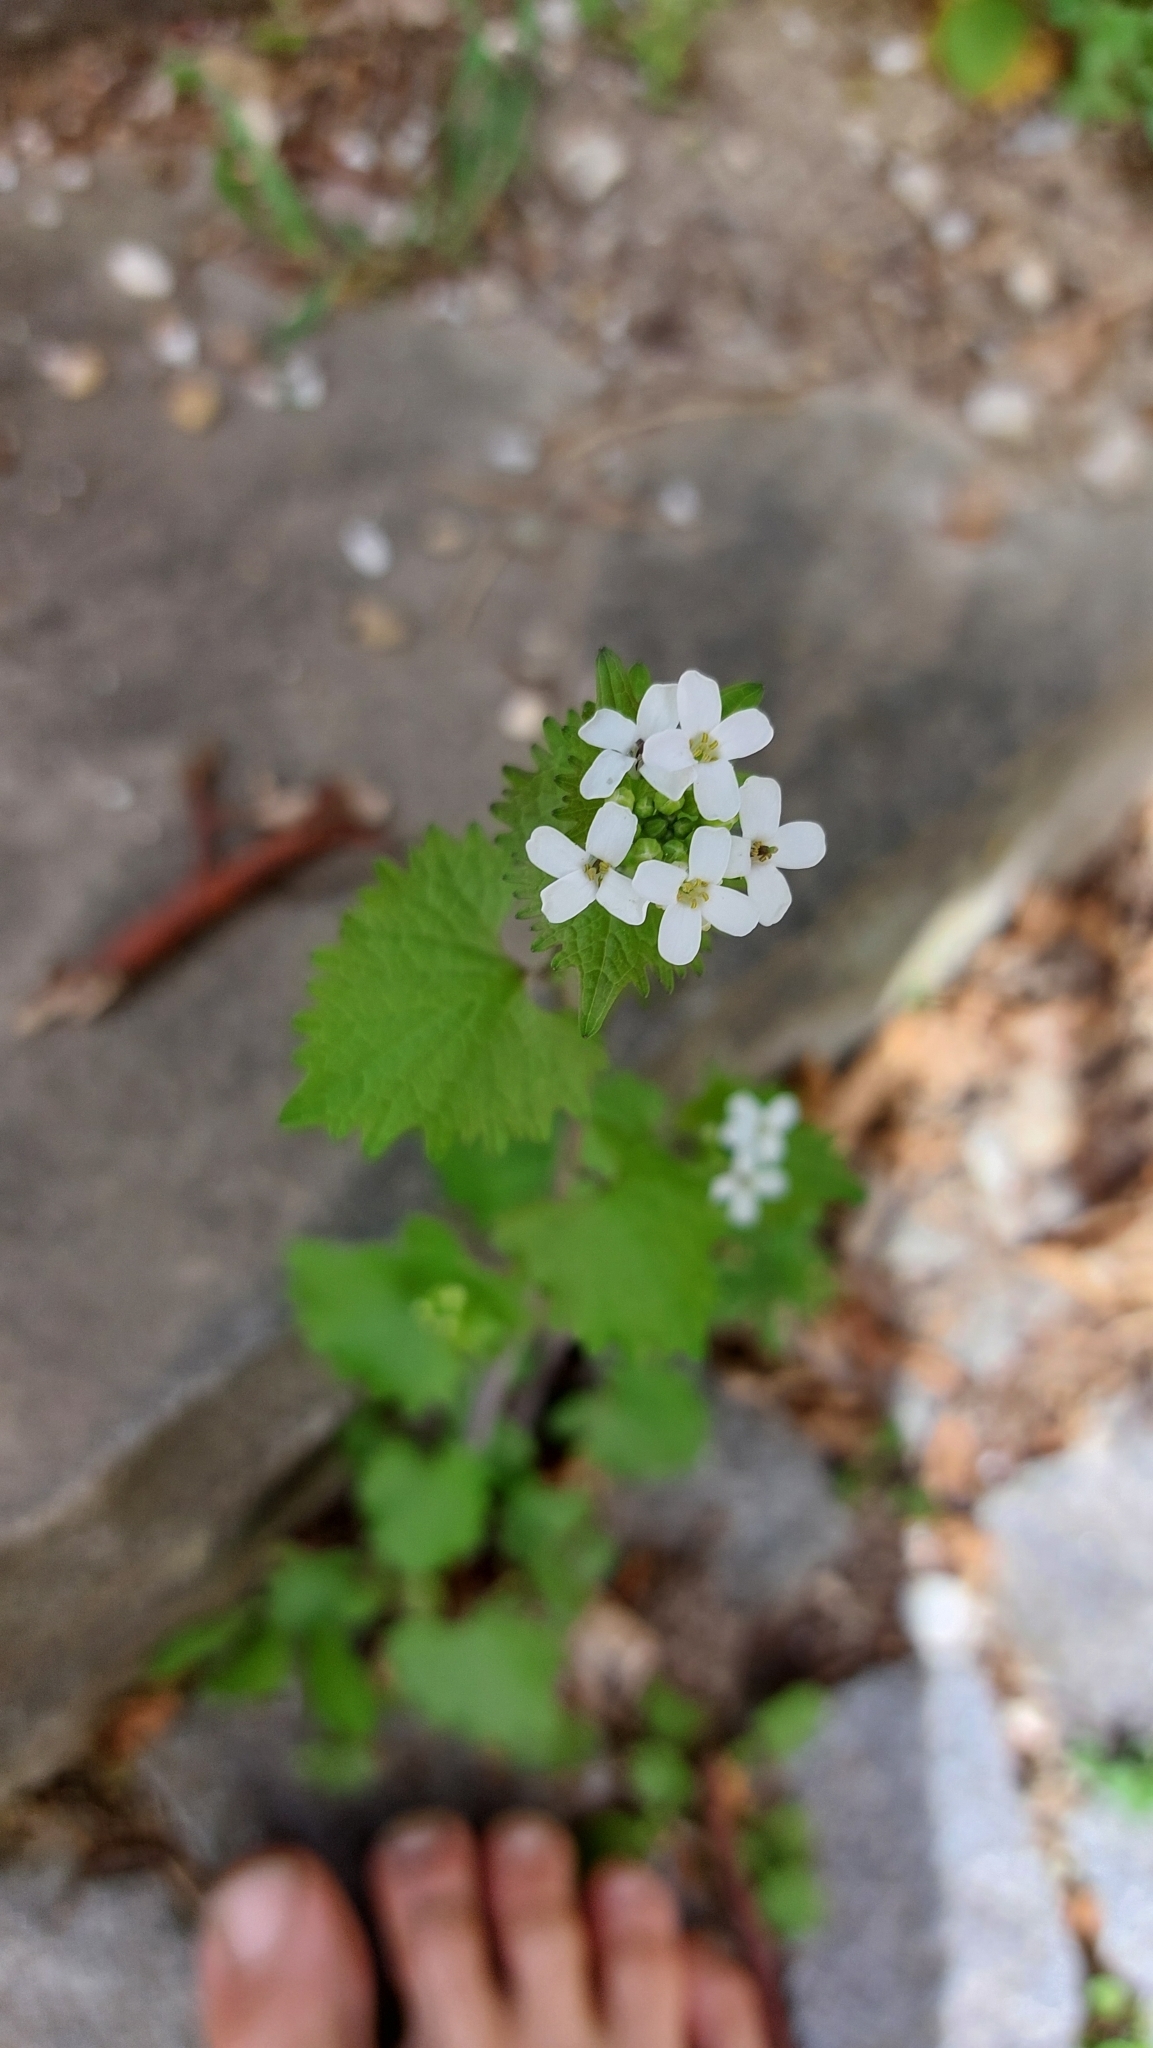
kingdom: Plantae
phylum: Tracheophyta
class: Magnoliopsida
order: Brassicales
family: Brassicaceae
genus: Alliaria
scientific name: Alliaria petiolata
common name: Garlic mustard
